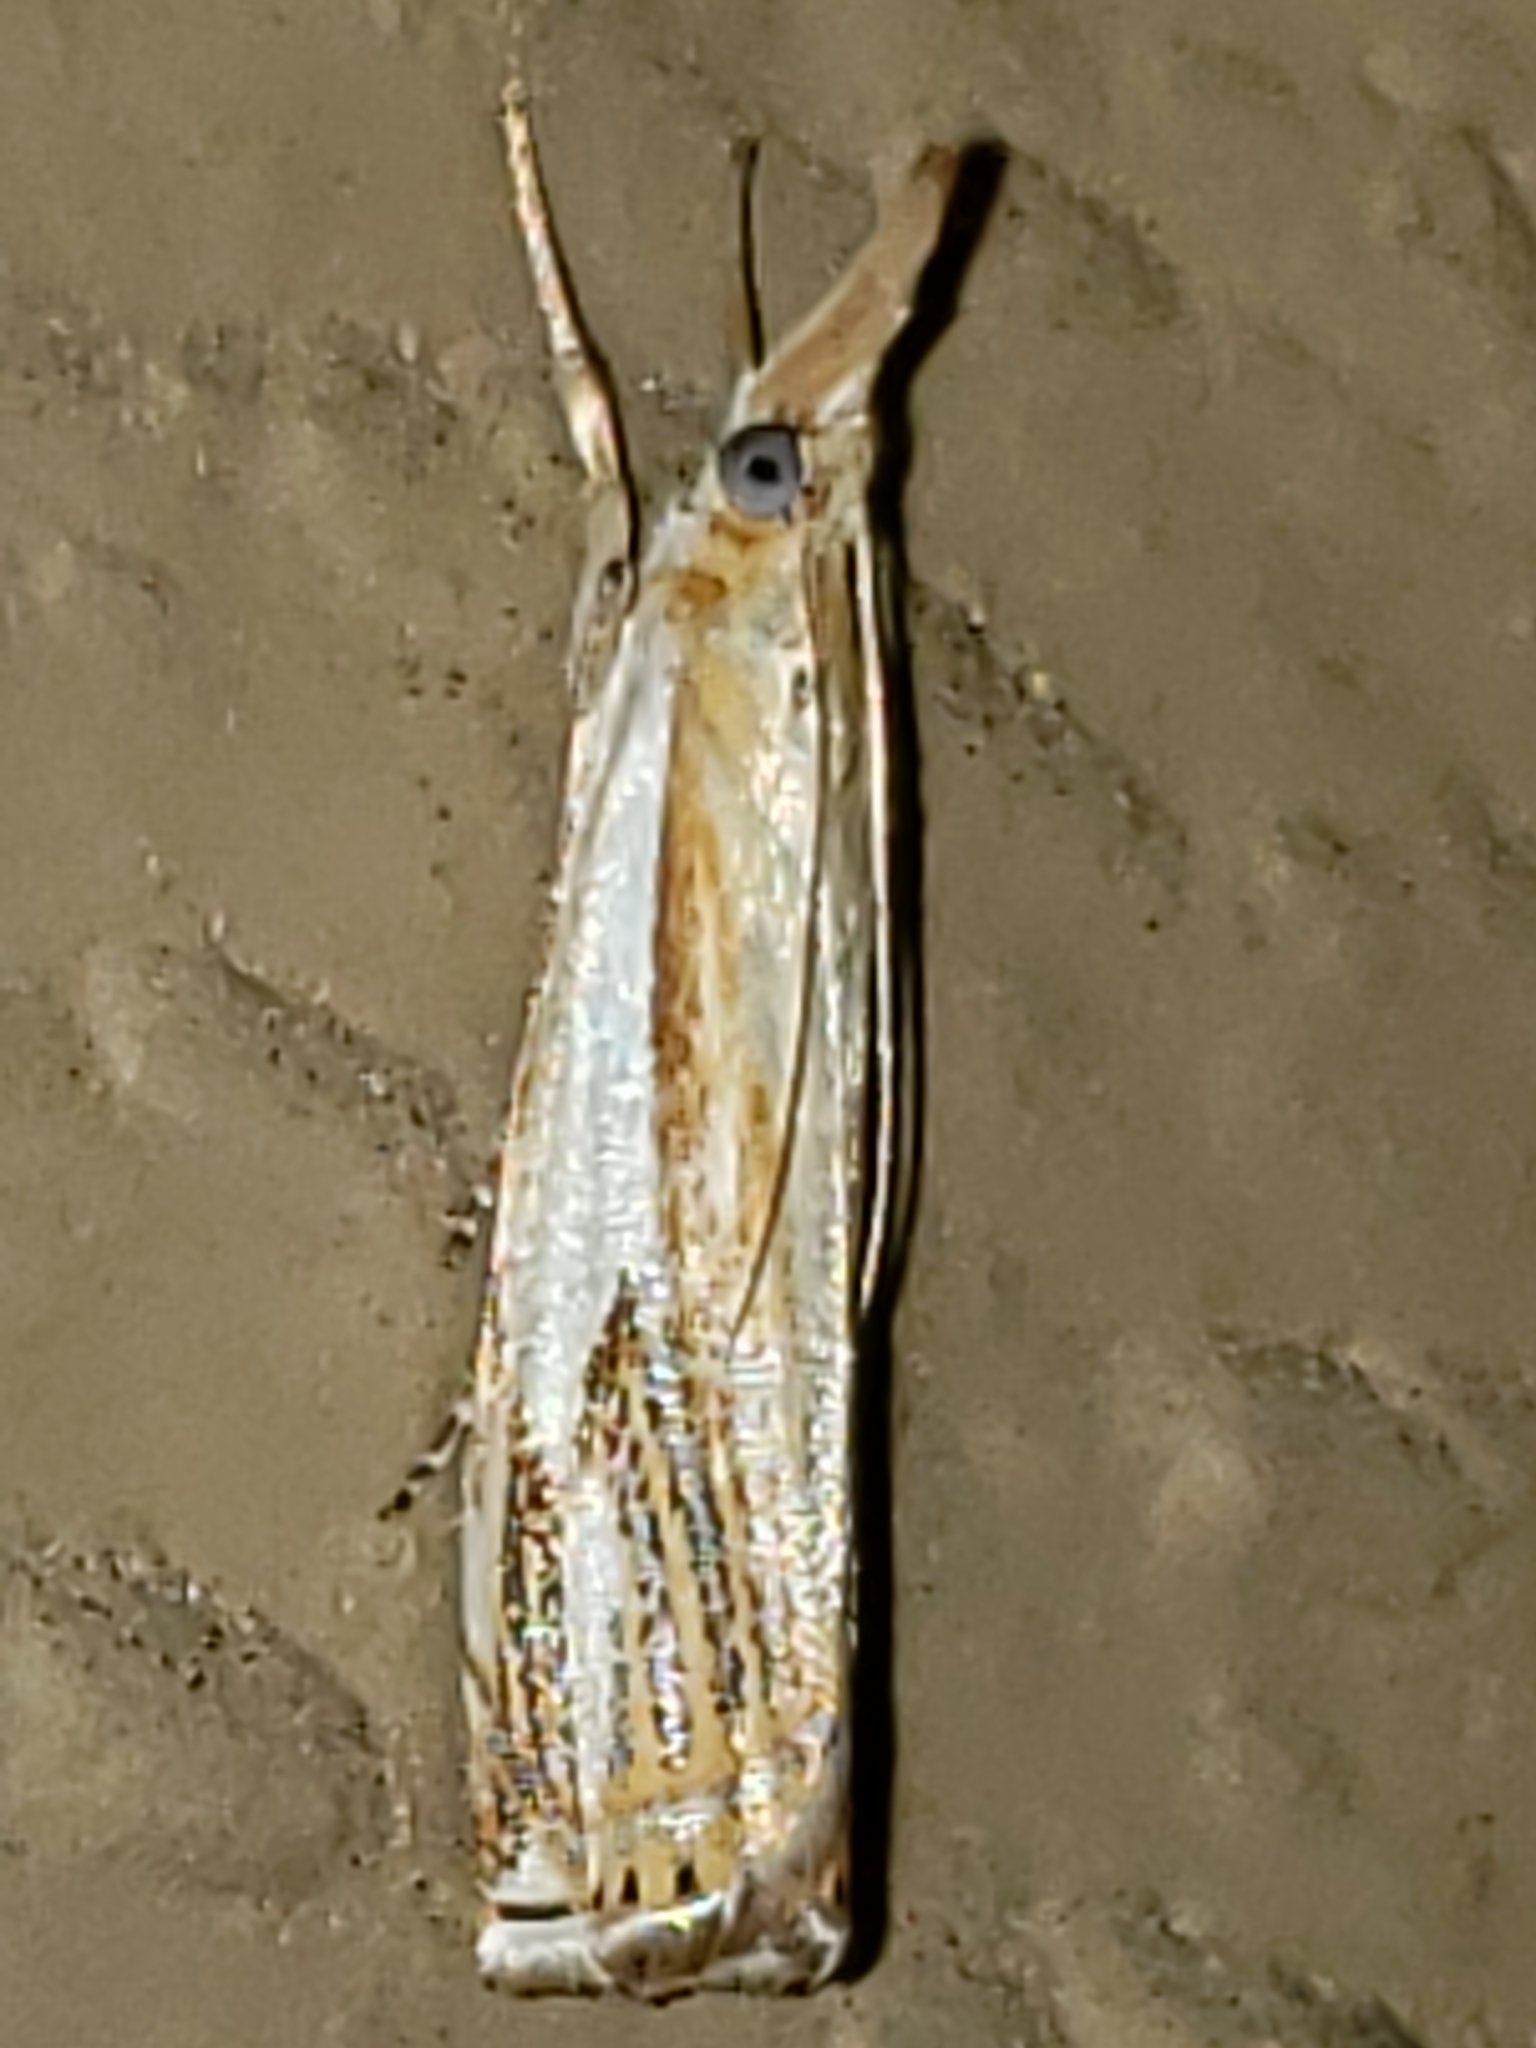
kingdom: Animalia
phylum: Arthropoda
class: Insecta
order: Lepidoptera
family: Crambidae
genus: Crambus
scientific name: Crambus saltuellus
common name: Pasture grass-veneer
